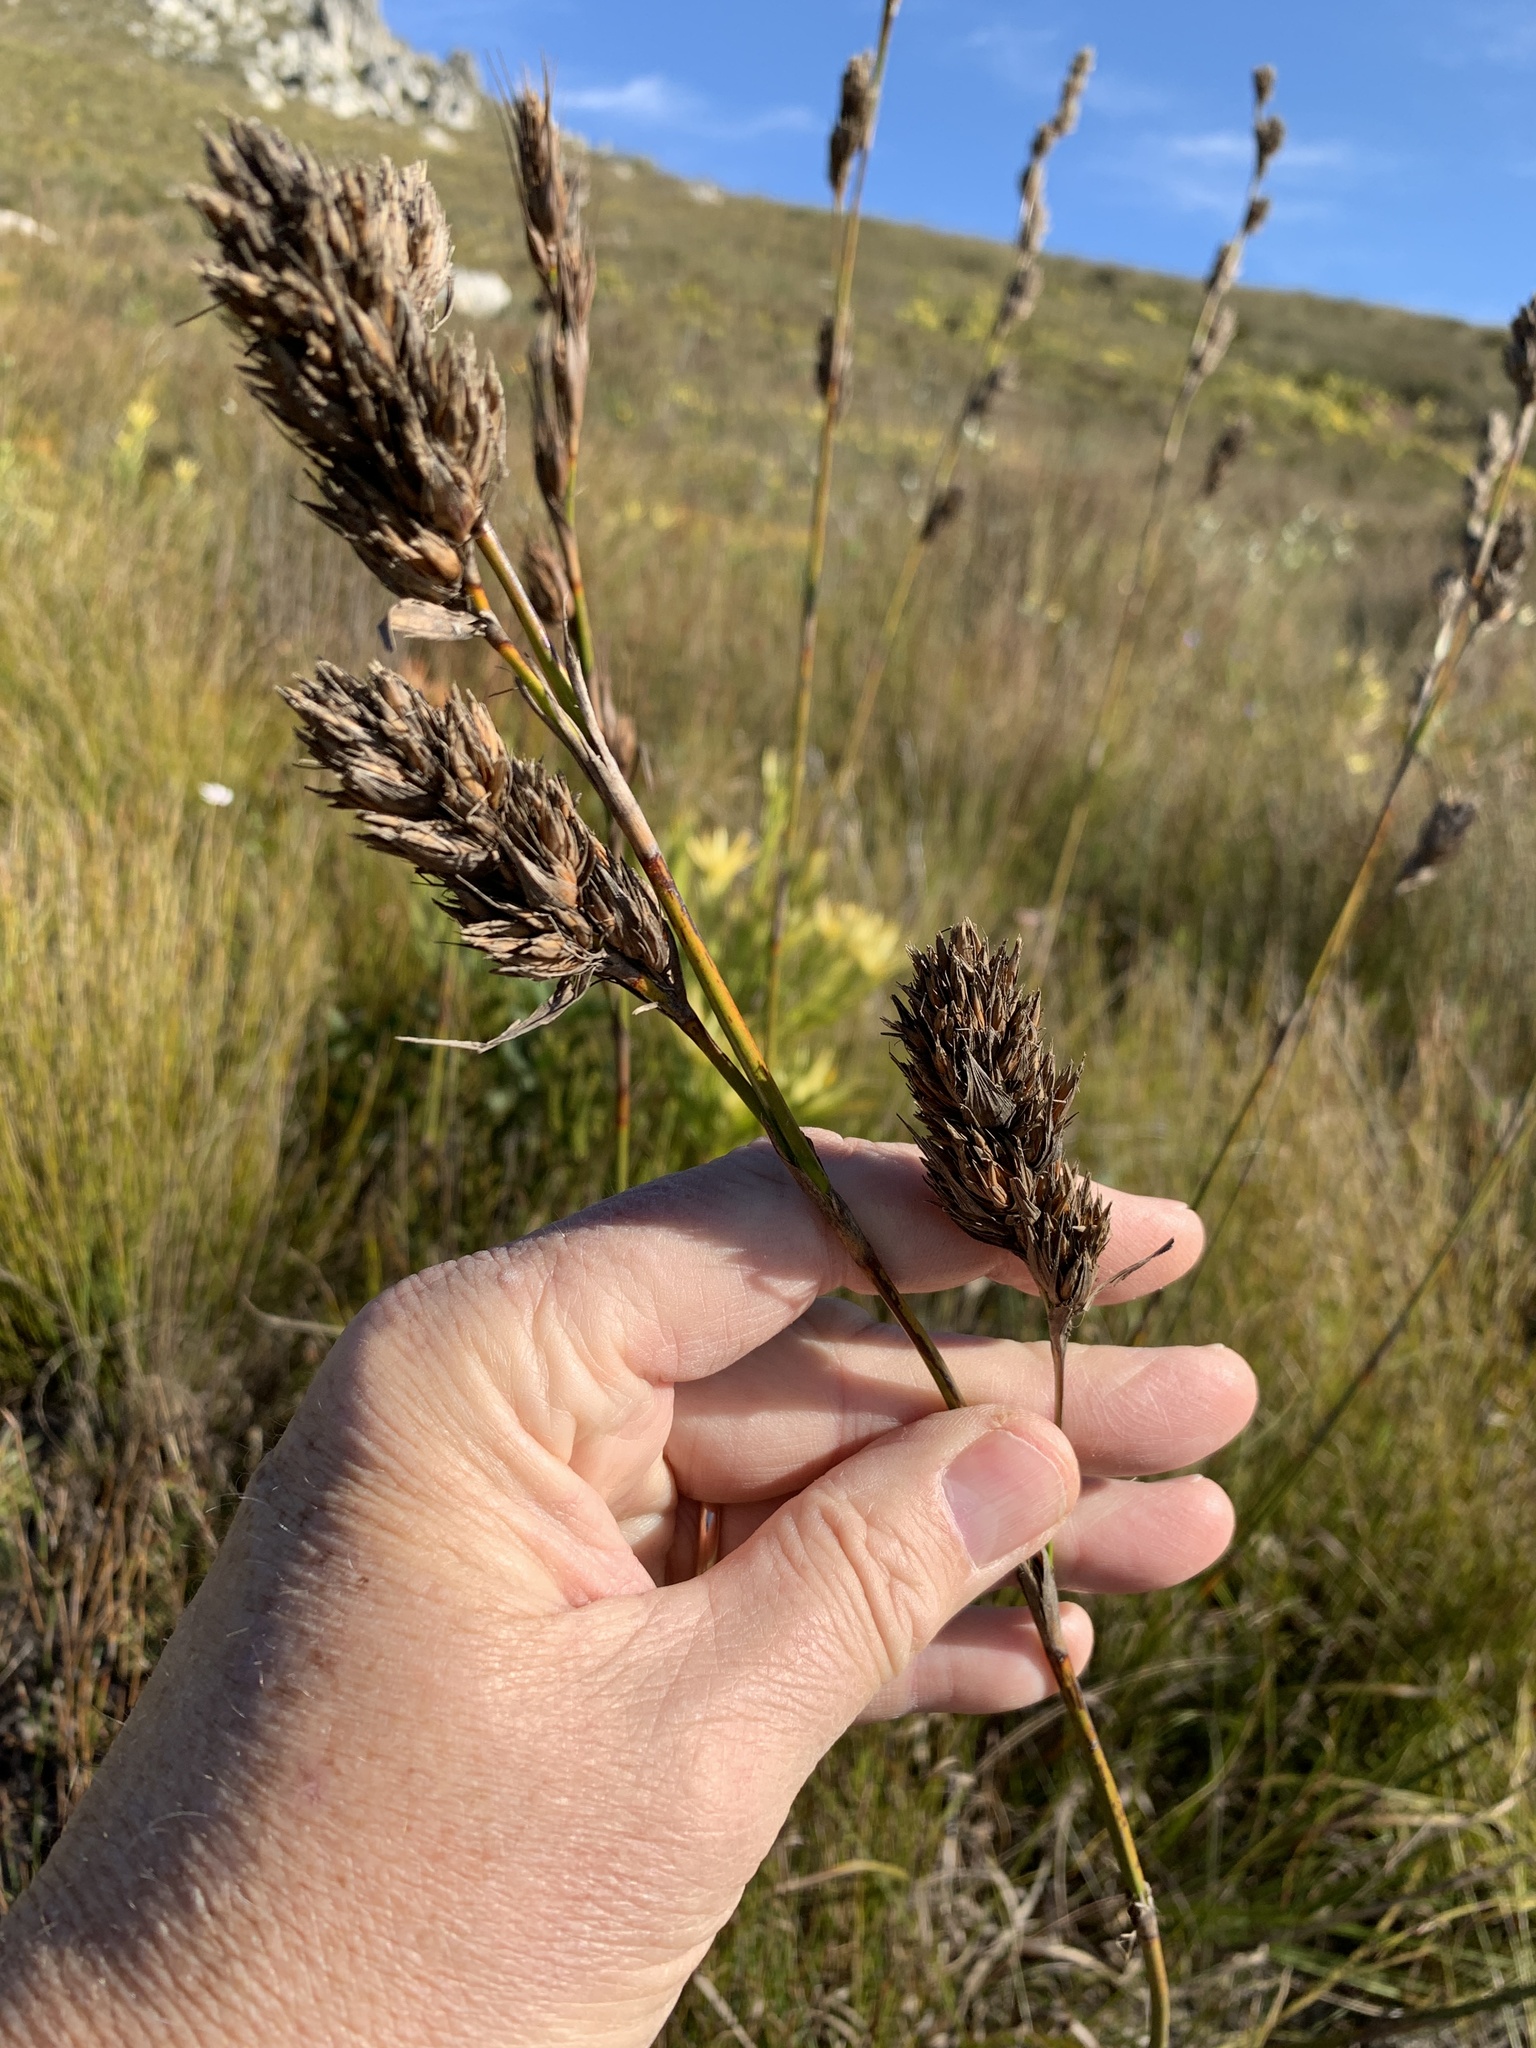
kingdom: Plantae
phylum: Tracheophyta
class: Liliopsida
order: Poales
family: Cyperaceae
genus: Tetraria
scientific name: Tetraria bromoides
